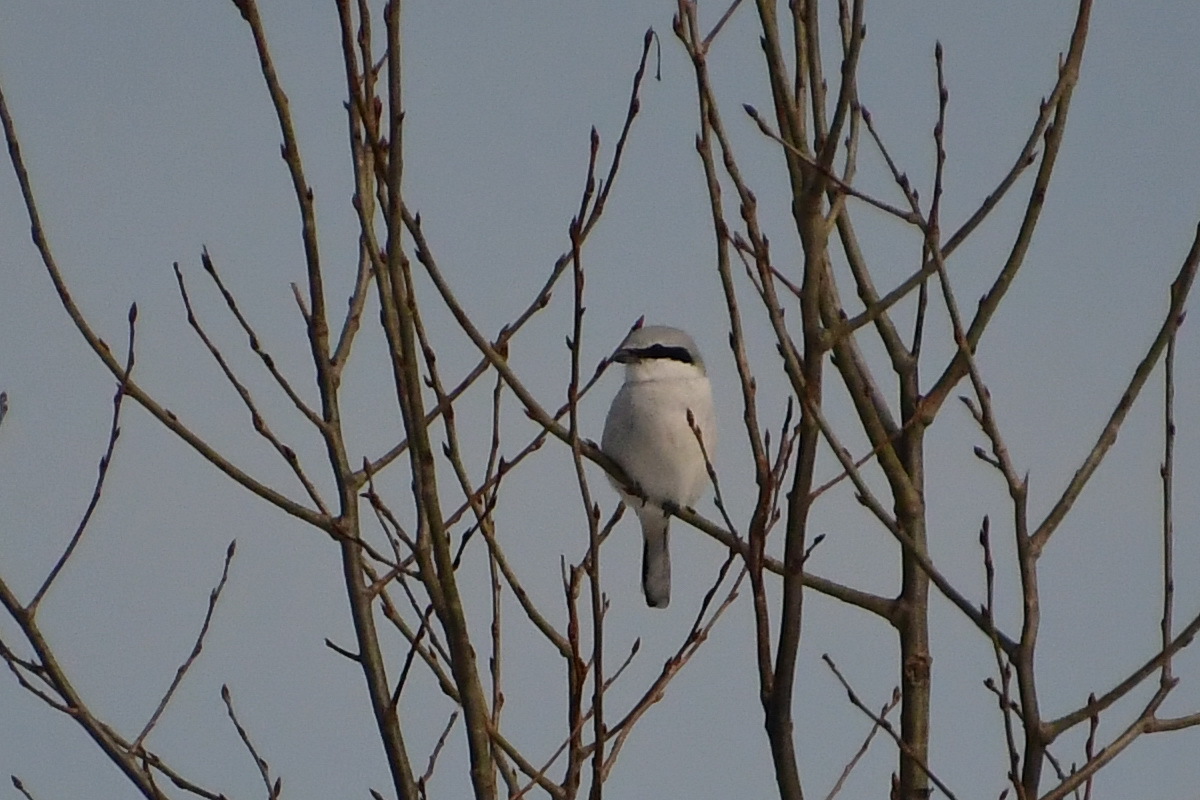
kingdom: Animalia
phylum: Chordata
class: Aves
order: Passeriformes
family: Laniidae
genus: Lanius
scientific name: Lanius excubitor
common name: Great grey shrike
